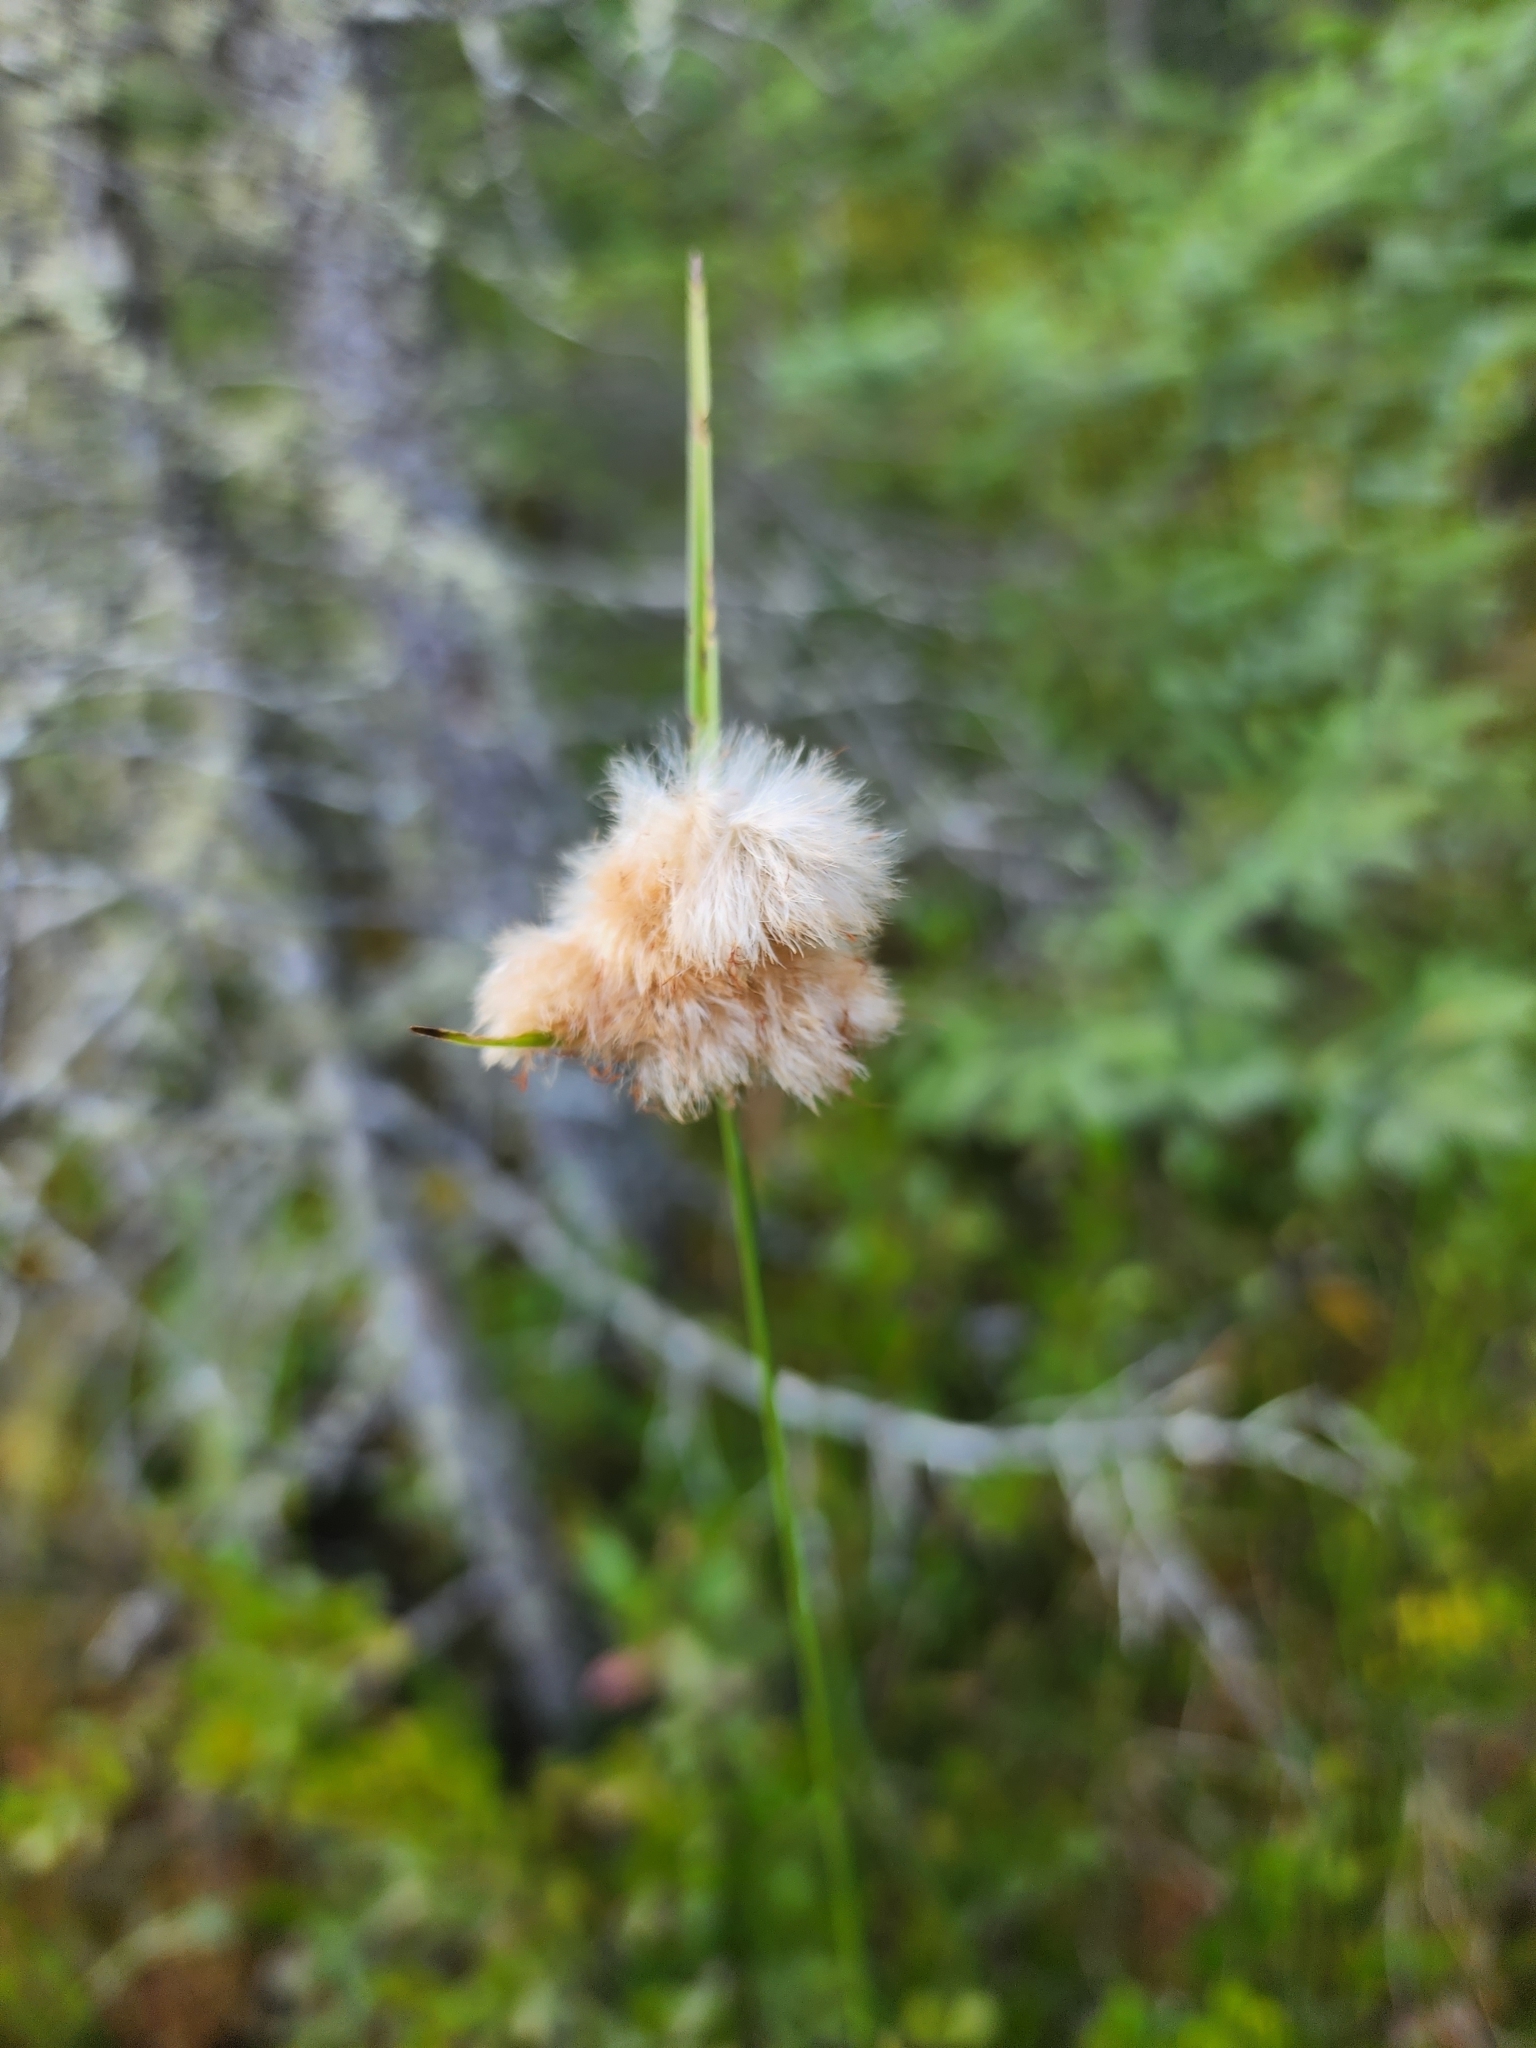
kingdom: Plantae
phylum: Tracheophyta
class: Liliopsida
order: Poales
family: Cyperaceae
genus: Eriophorum
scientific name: Eriophorum virginicum
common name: Tawny cottongrass
